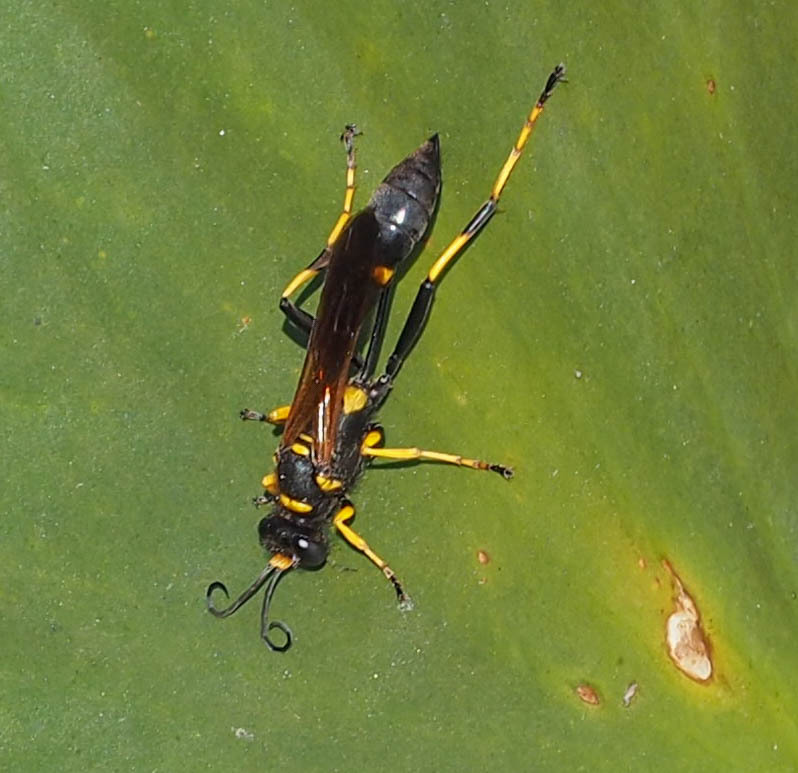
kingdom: Animalia
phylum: Arthropoda
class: Insecta
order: Hymenoptera
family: Sphecidae
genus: Sceliphron
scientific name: Sceliphron caementarium
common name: Mud dauber
